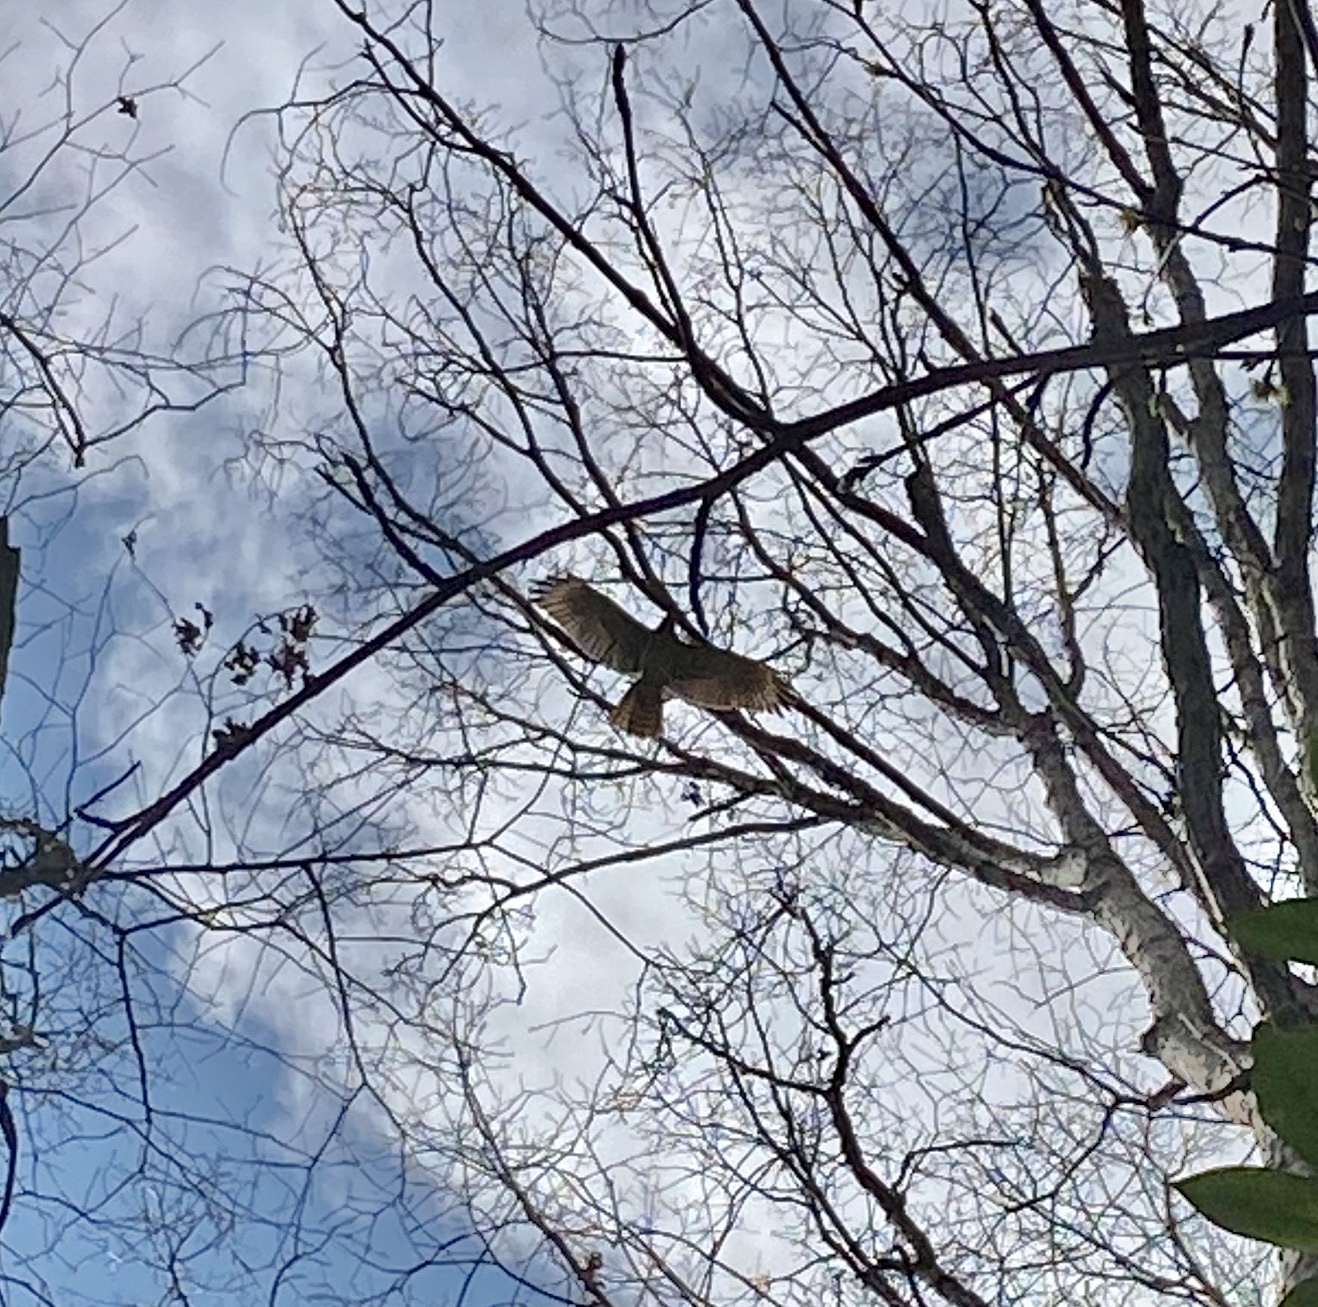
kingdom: Animalia
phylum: Chordata
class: Aves
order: Accipitriformes
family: Accipitridae
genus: Buteo
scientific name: Buteo lineatus
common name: Red-shouldered hawk
